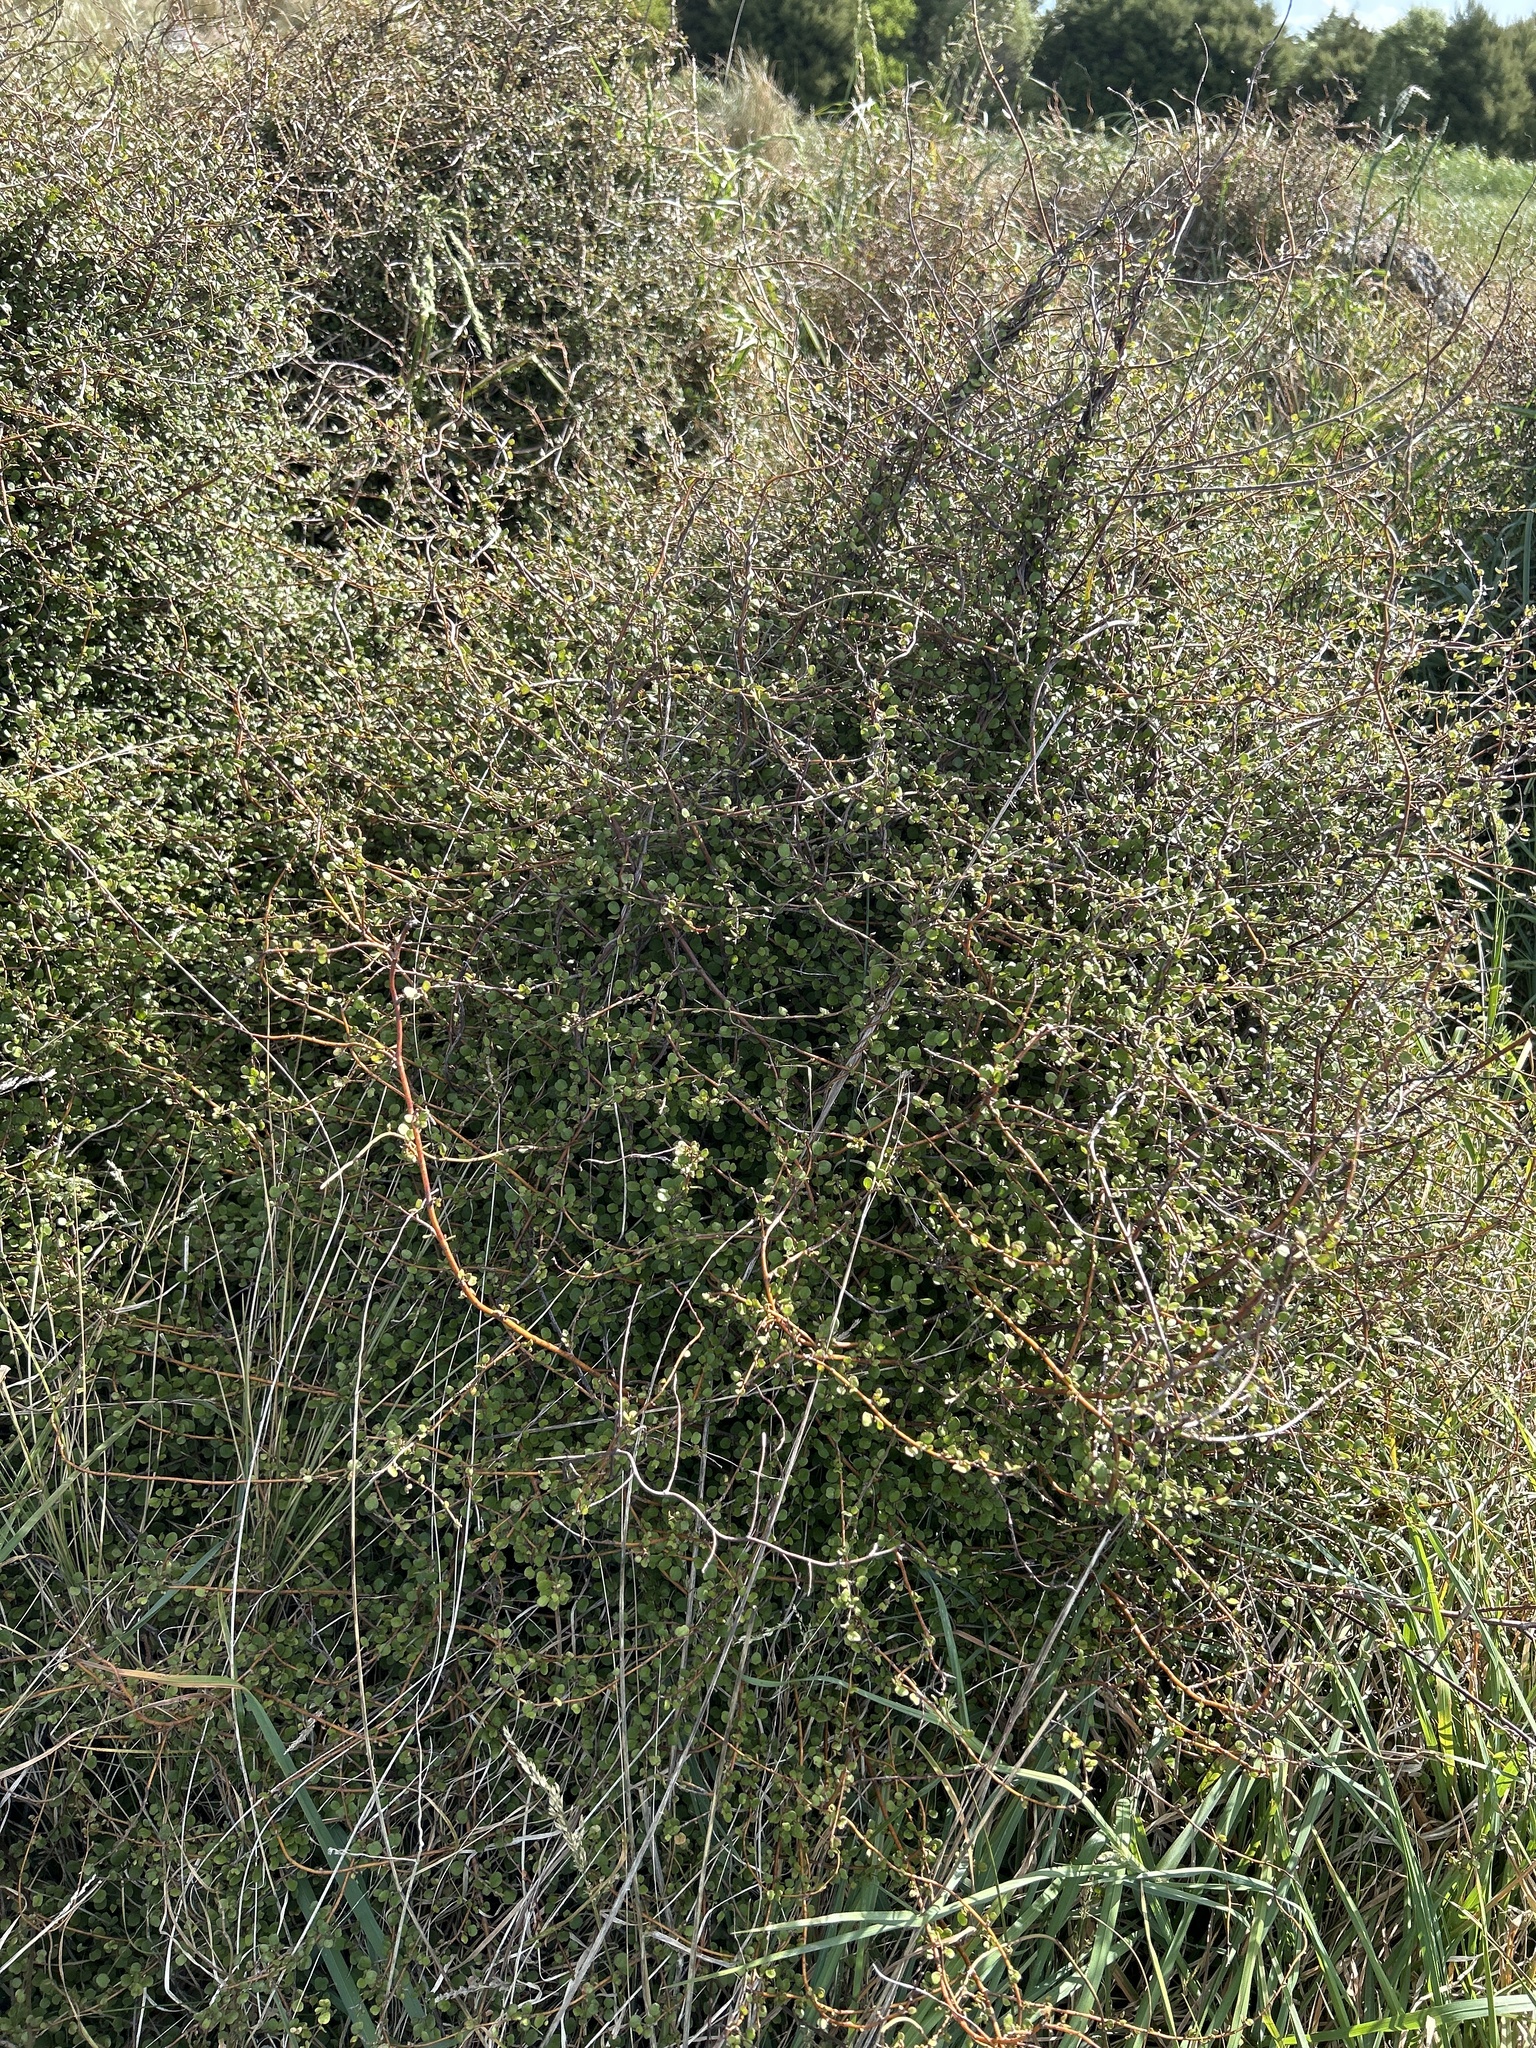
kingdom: Plantae
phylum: Tracheophyta
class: Magnoliopsida
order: Caryophyllales
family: Polygonaceae
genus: Muehlenbeckia
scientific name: Muehlenbeckia complexa
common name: Wireplant
